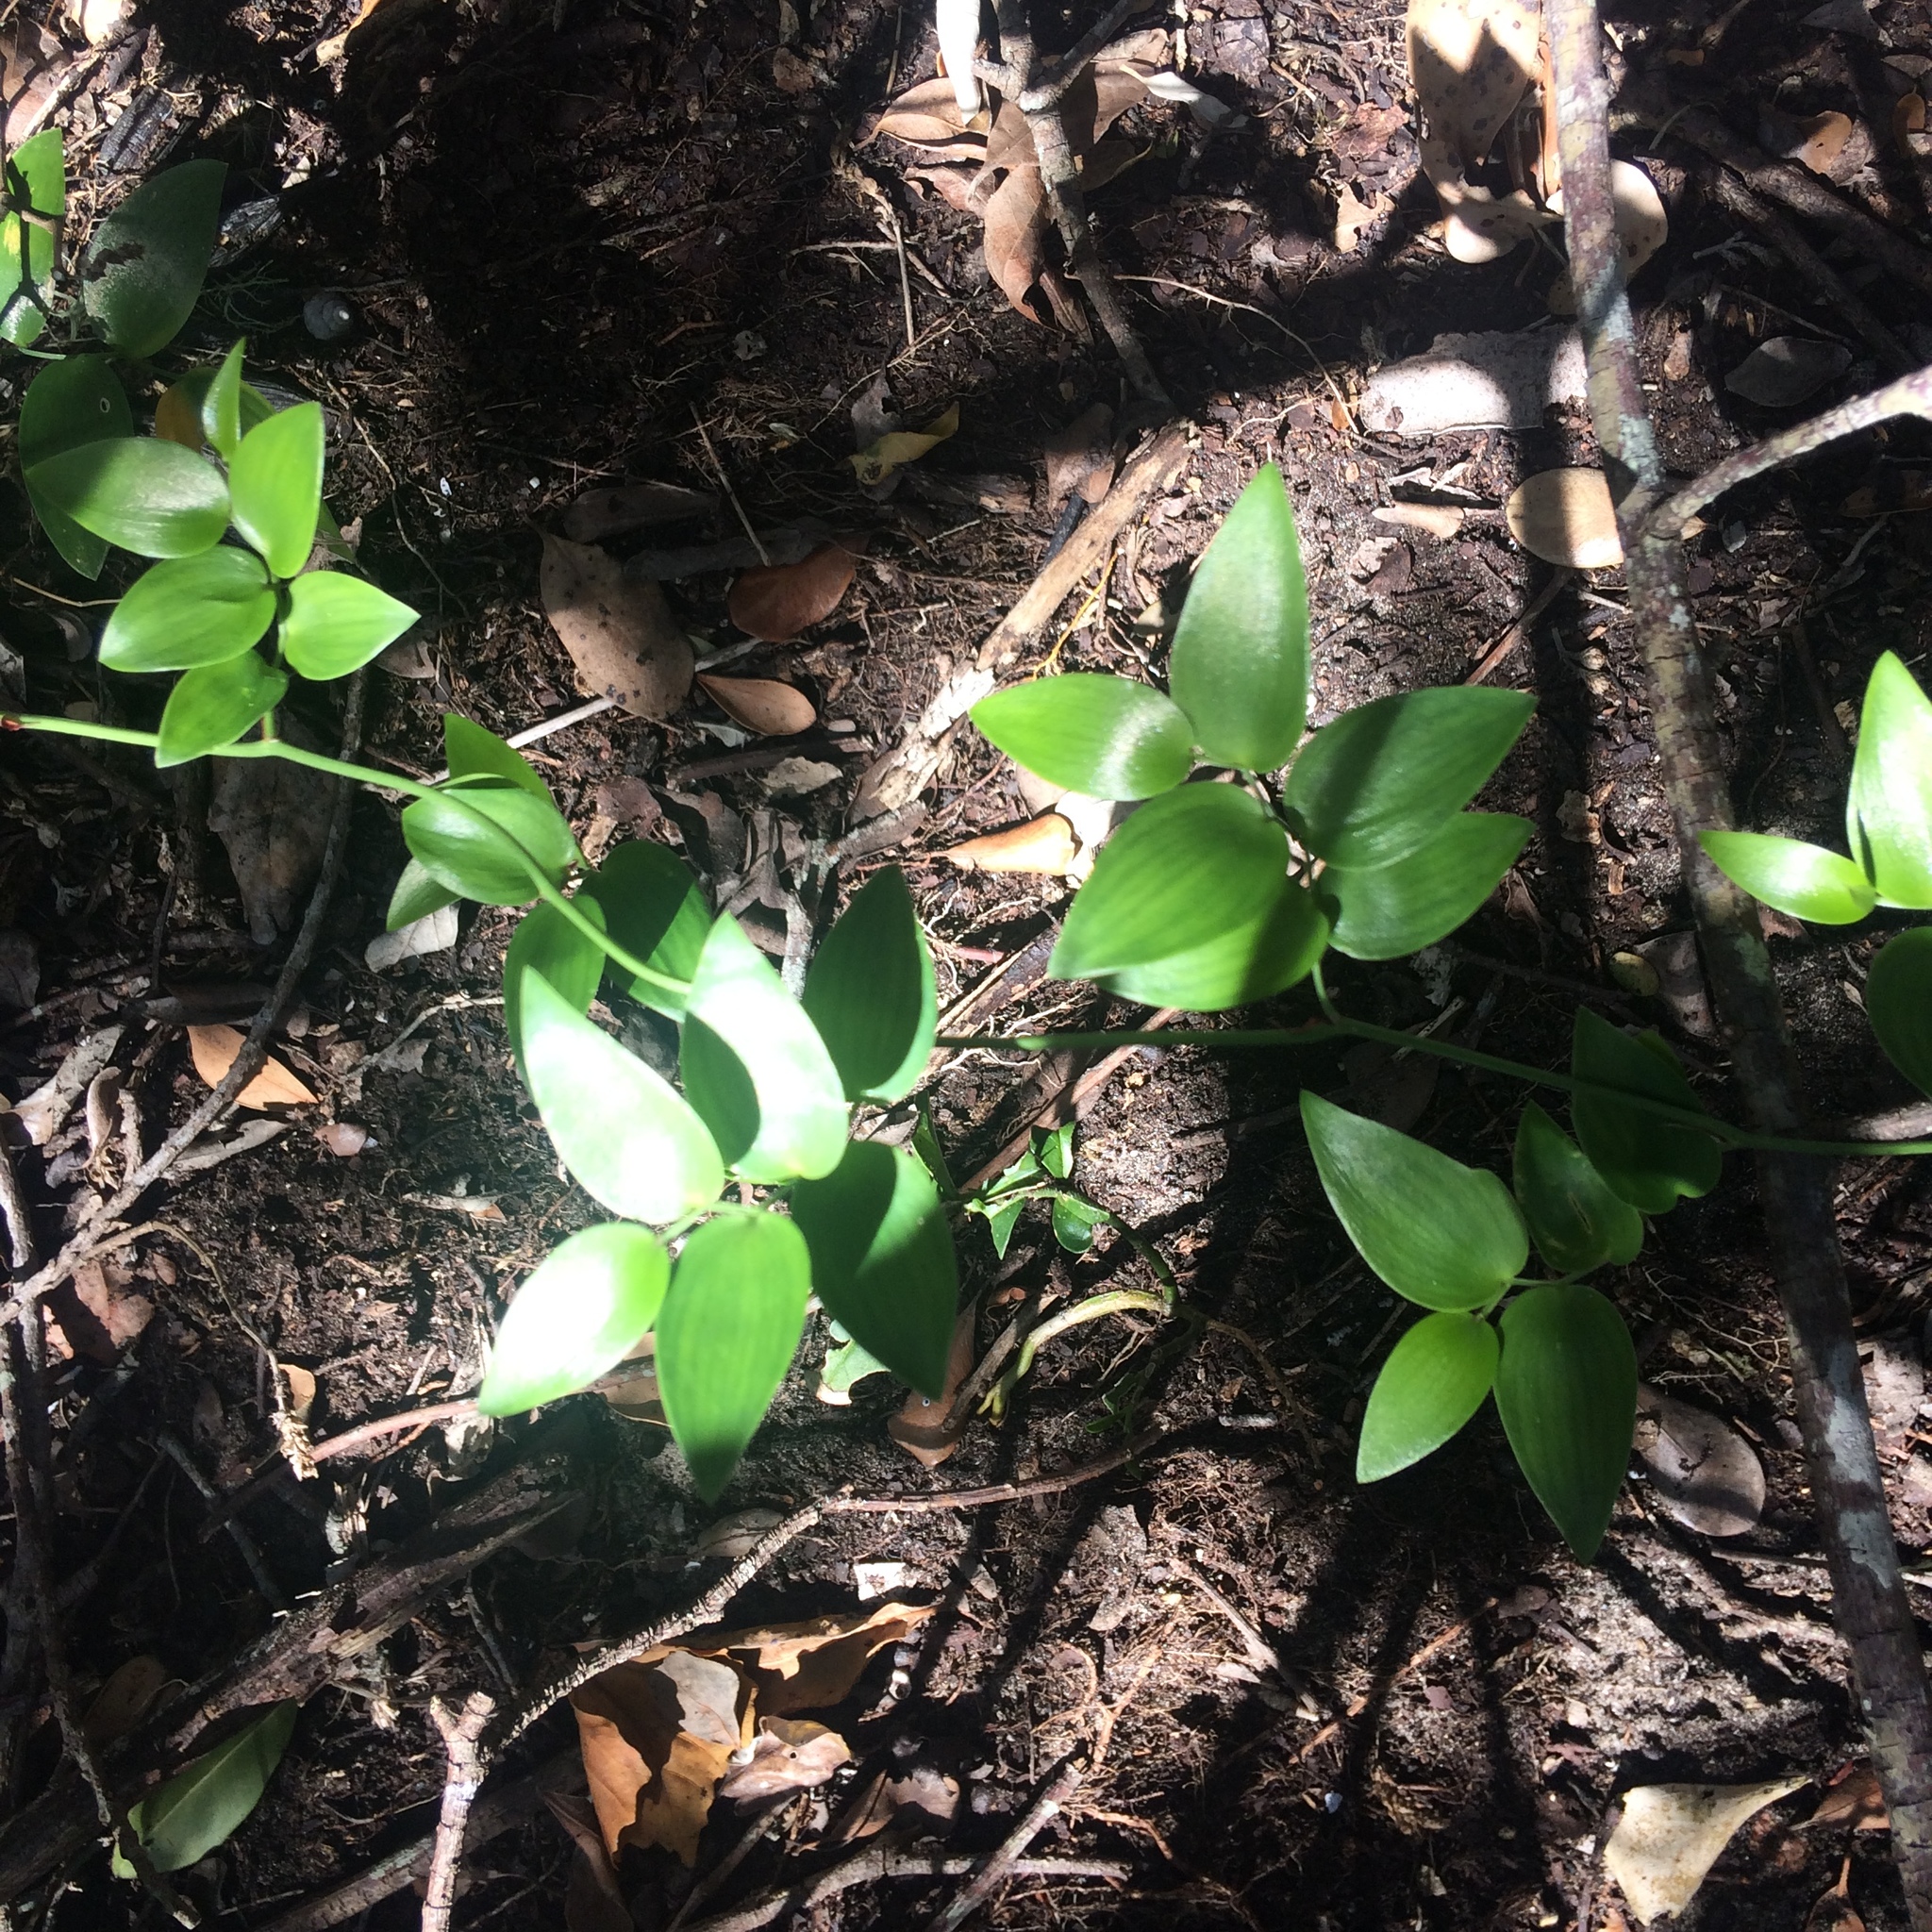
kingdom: Plantae
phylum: Tracheophyta
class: Liliopsida
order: Asparagales
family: Asparagaceae
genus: Asparagus
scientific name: Asparagus asparagoides
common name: African asparagus fern
